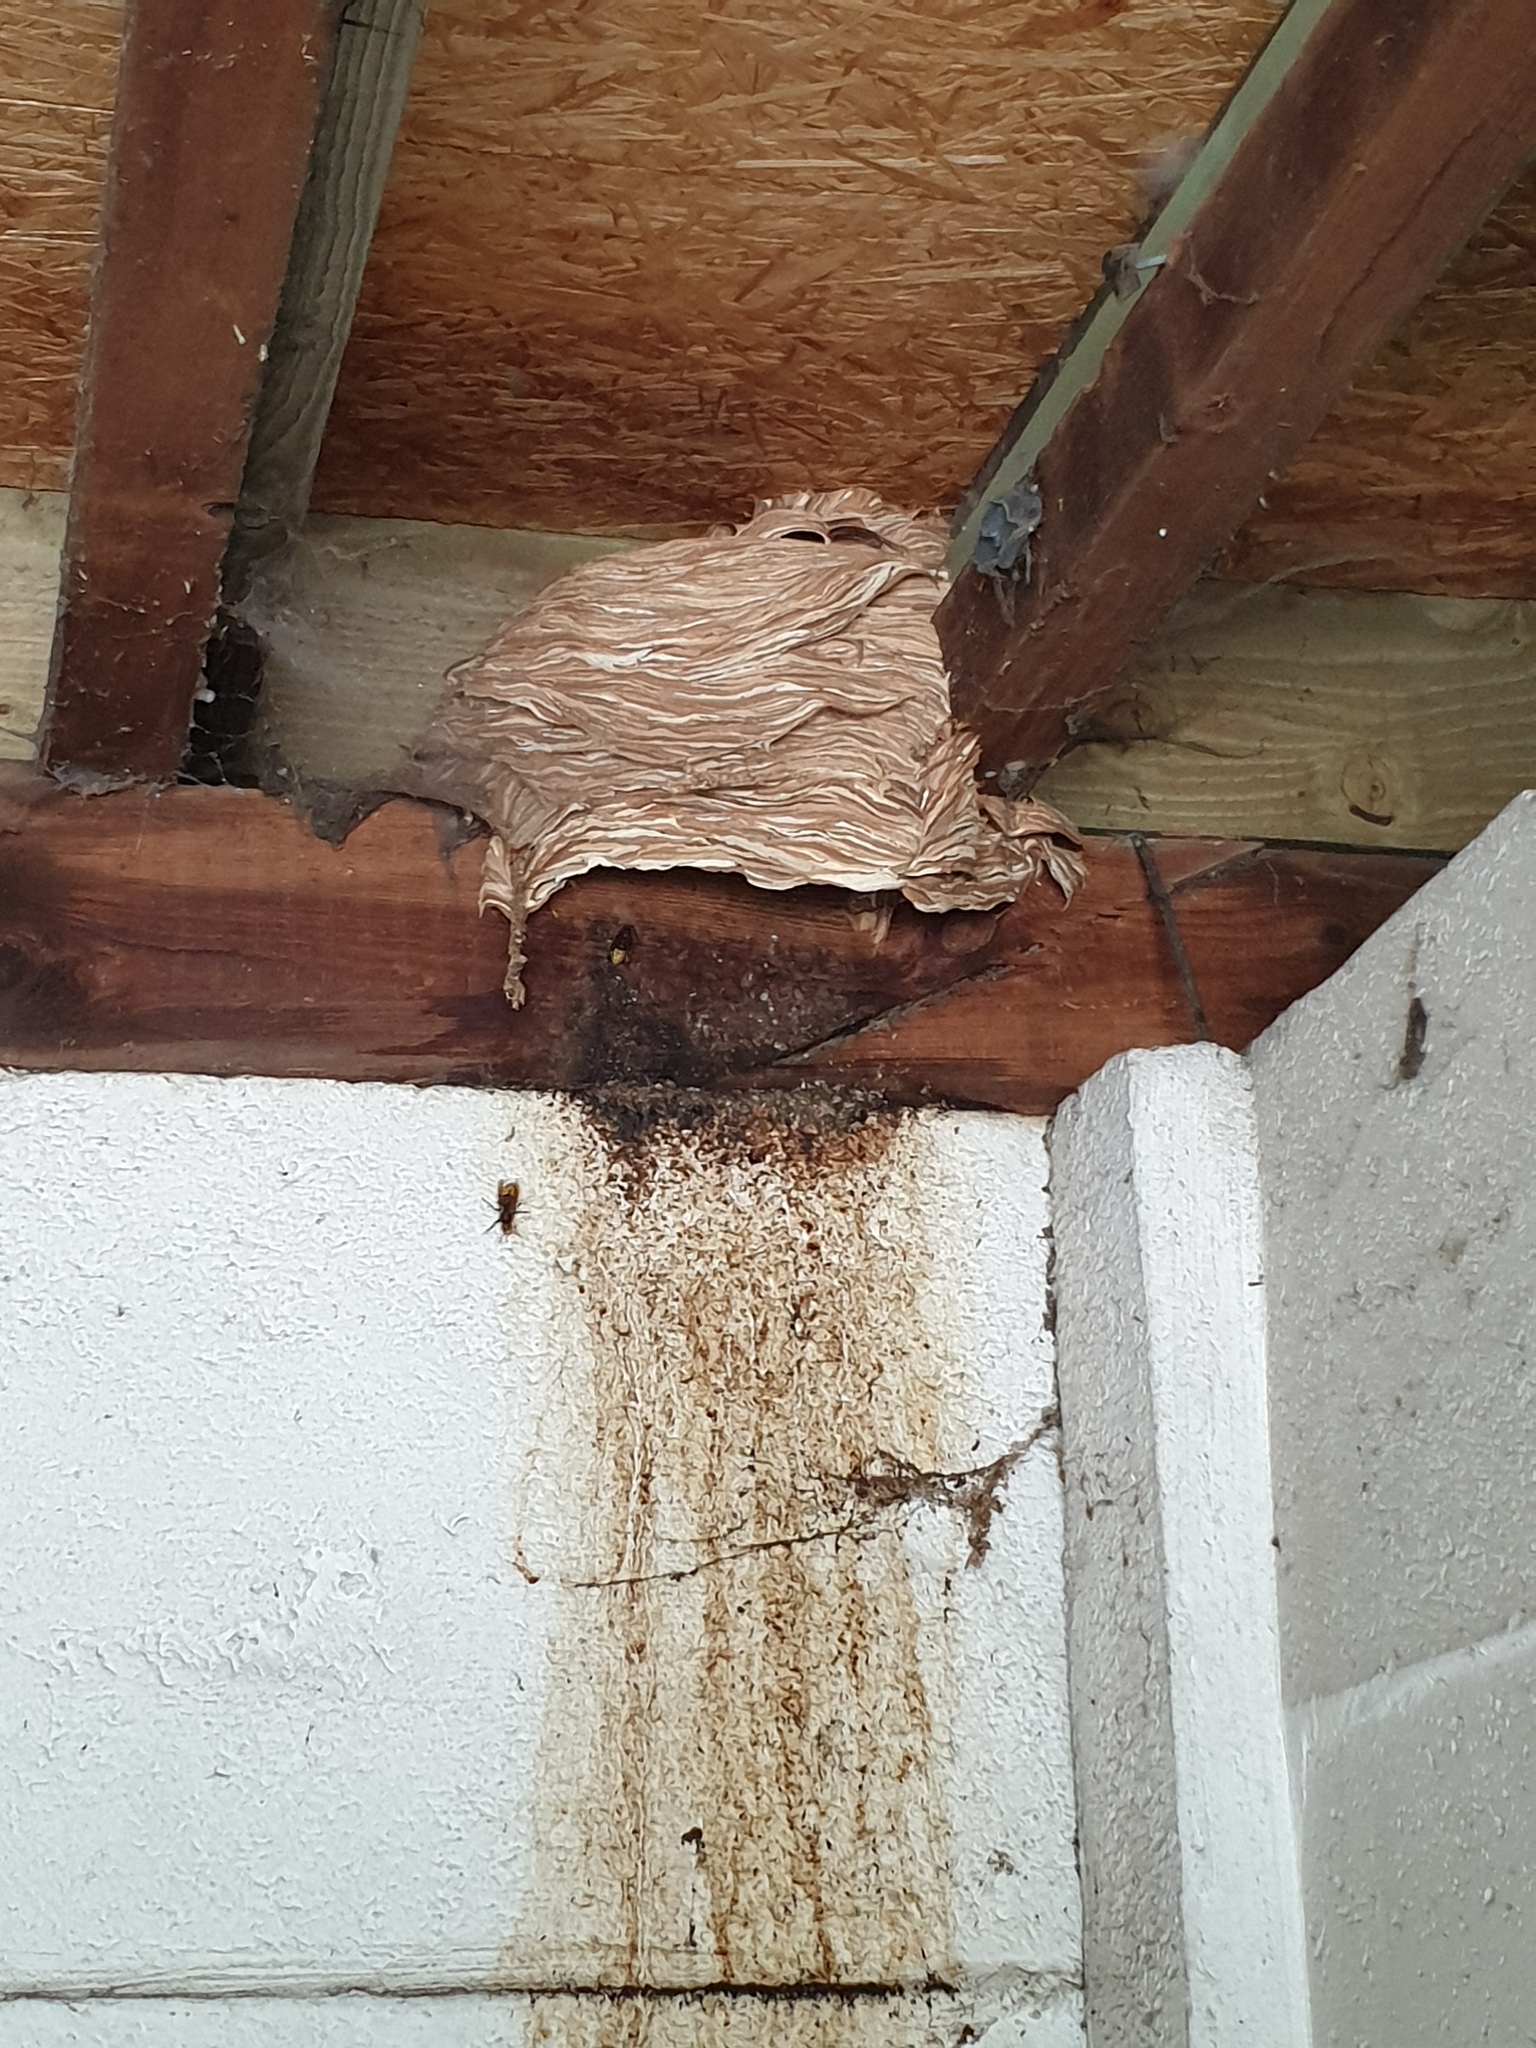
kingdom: Animalia
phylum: Arthropoda
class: Insecta
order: Hymenoptera
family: Vespidae
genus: Vespa
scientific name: Vespa crabro
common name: Hornet
